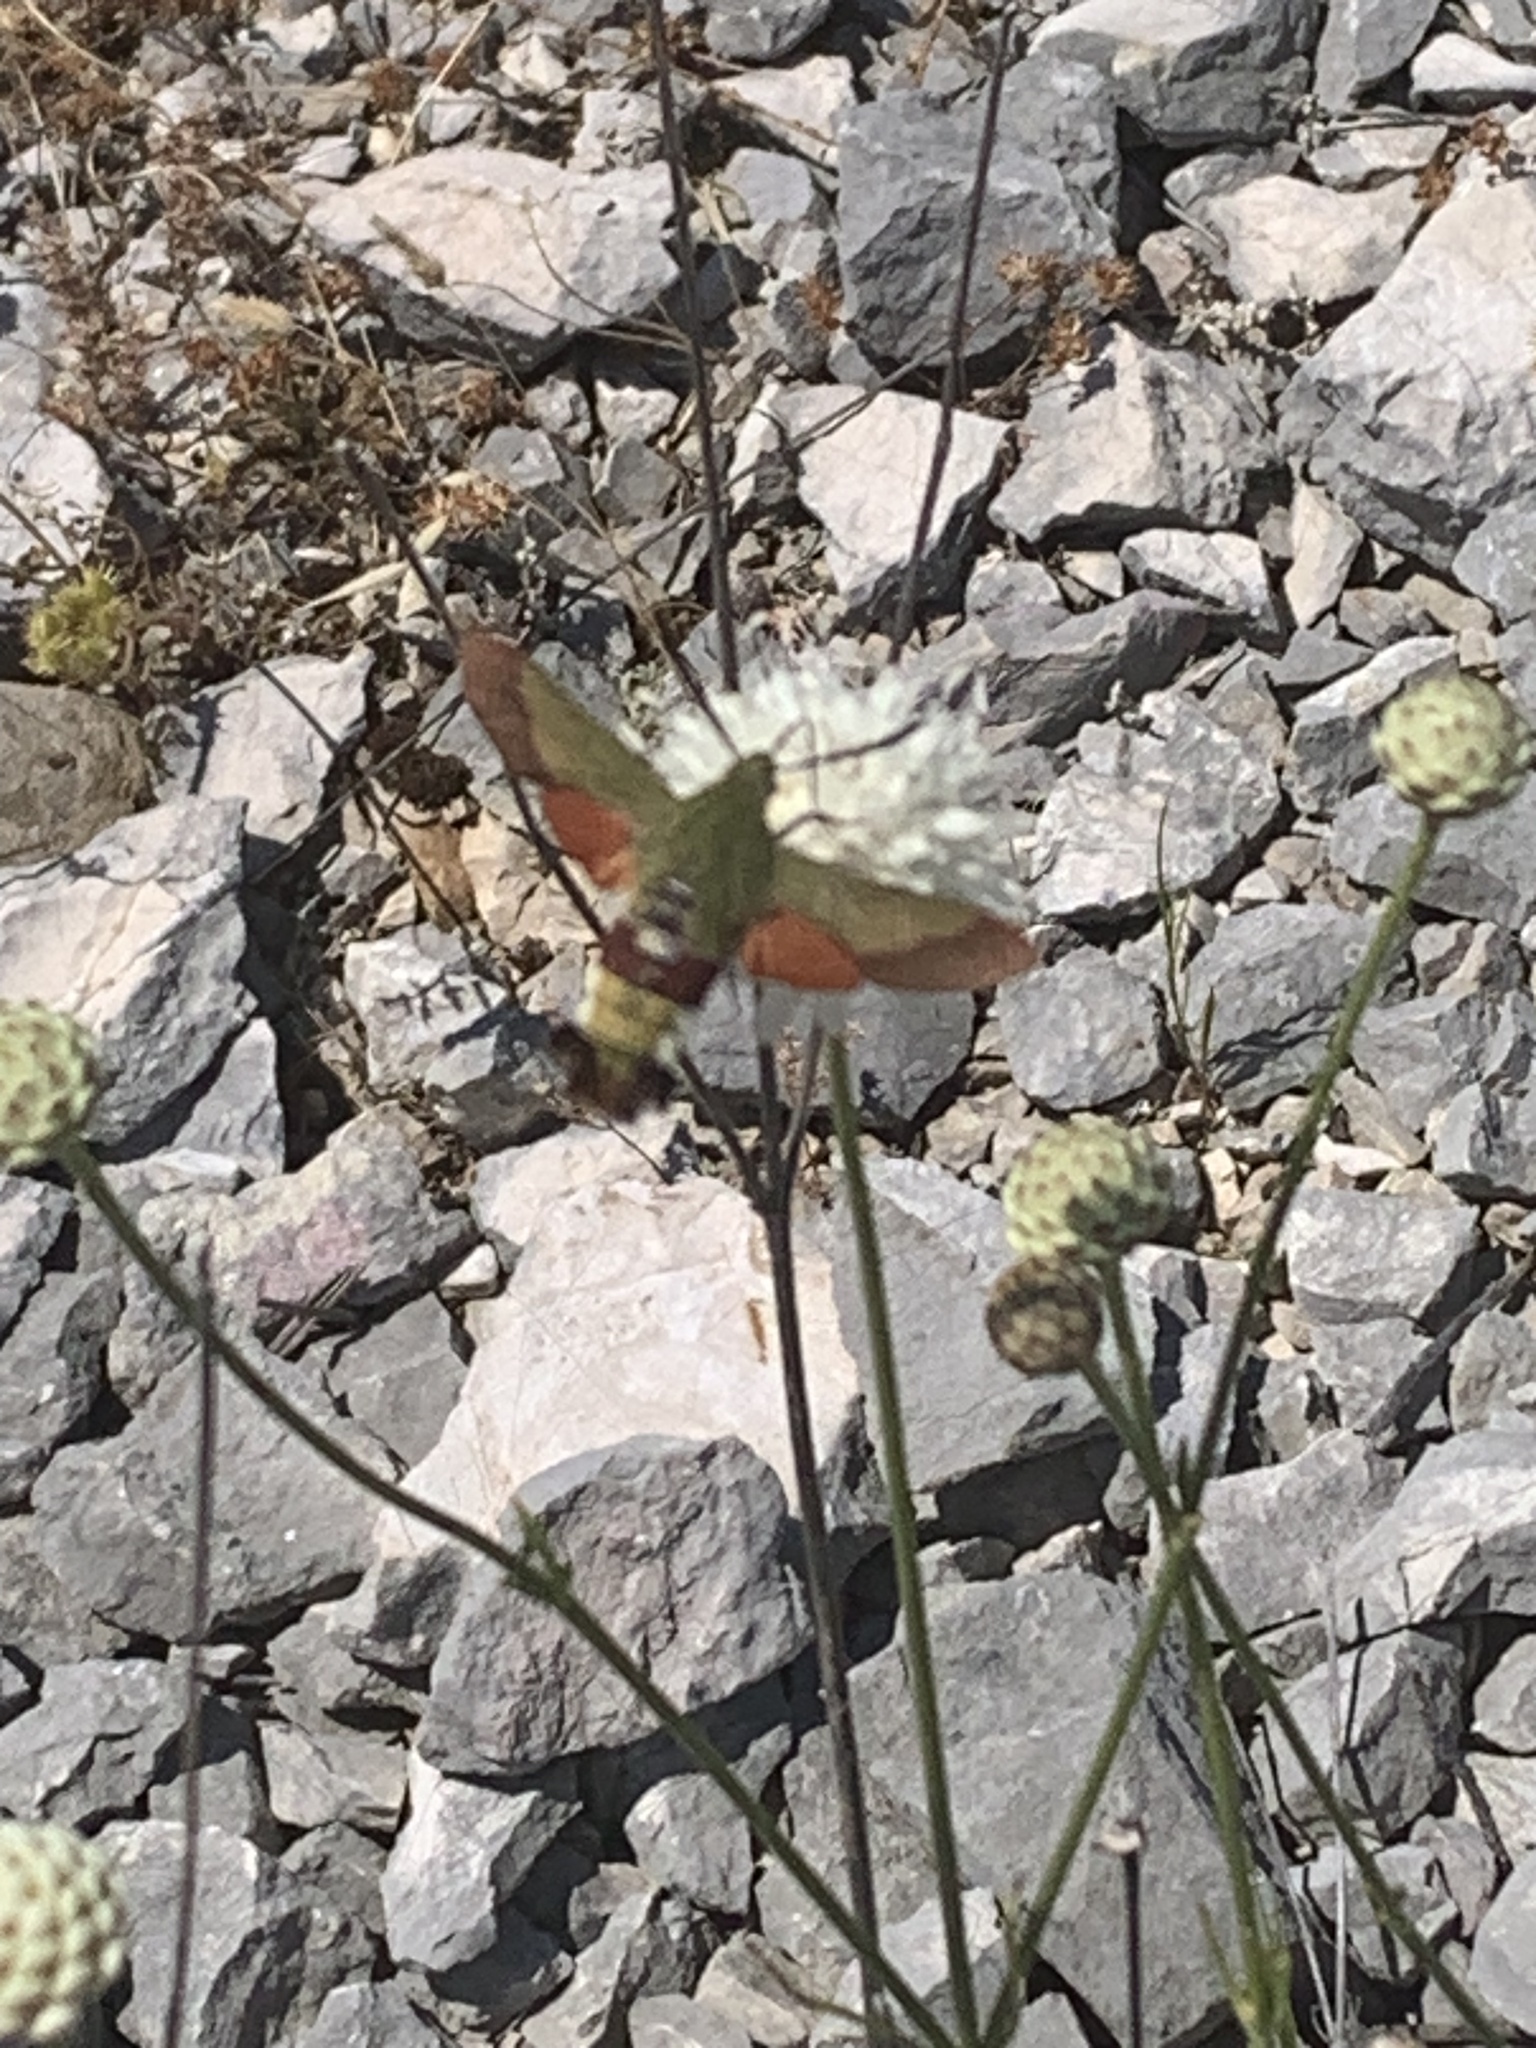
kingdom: Animalia
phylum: Arthropoda
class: Insecta
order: Lepidoptera
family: Sphingidae
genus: Hemaris
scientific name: Hemaris croatica
